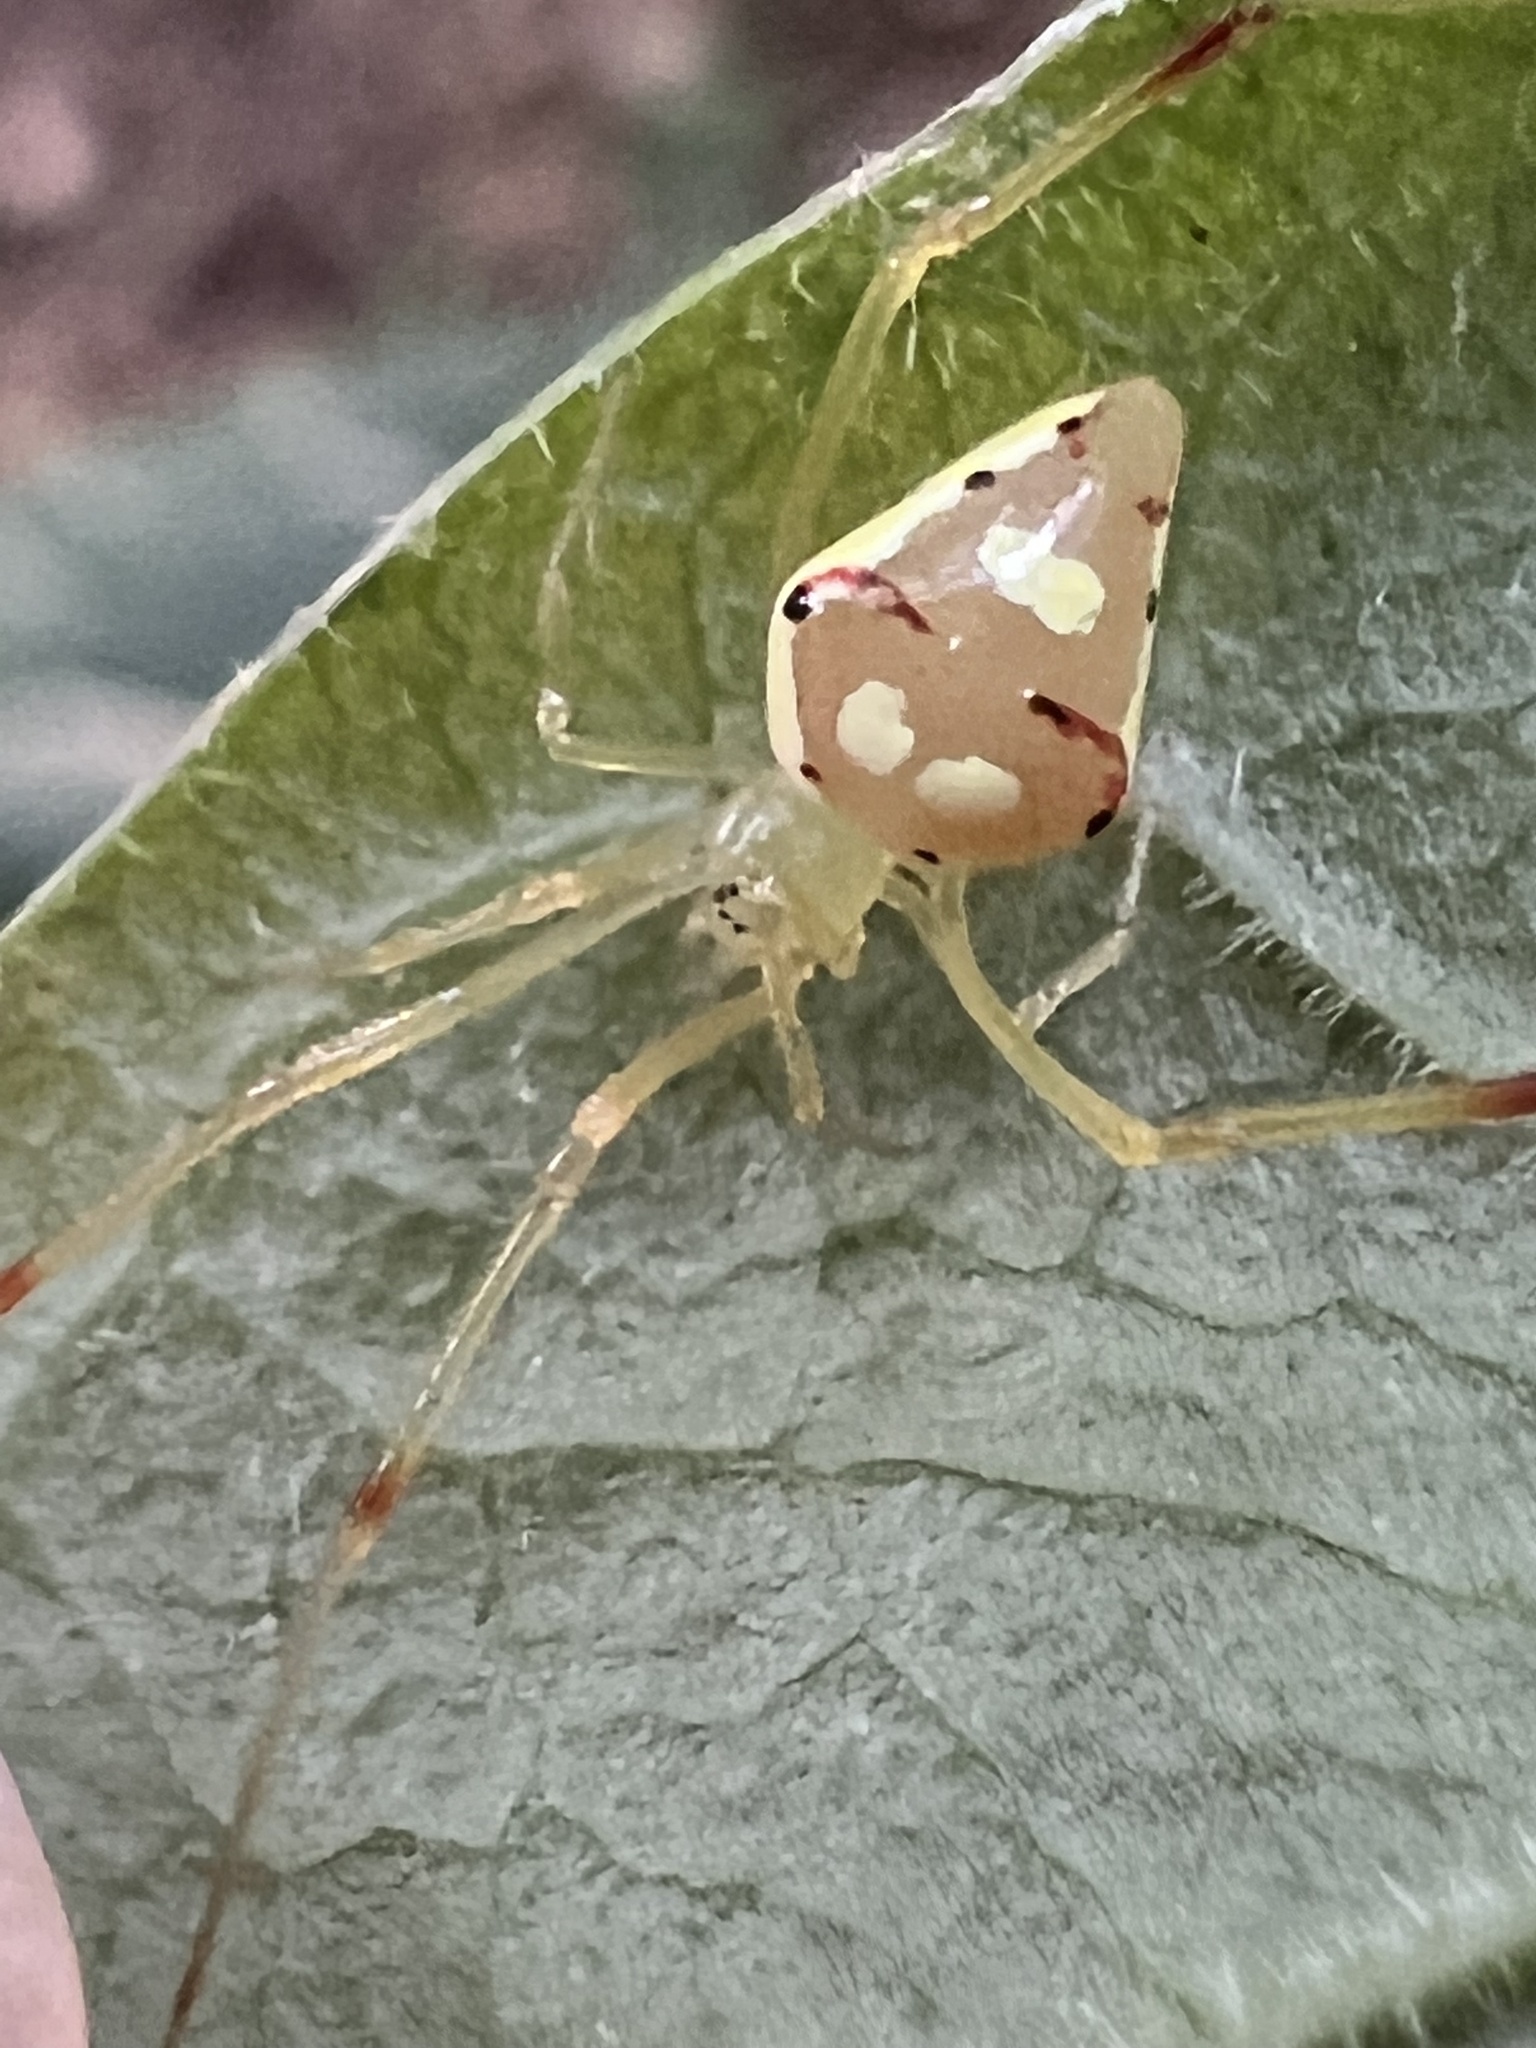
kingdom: Animalia
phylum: Arthropoda
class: Arachnida
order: Araneae
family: Theridiidae
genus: Spintharus
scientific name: Spintharus flavidus
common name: Cobweb spiders
